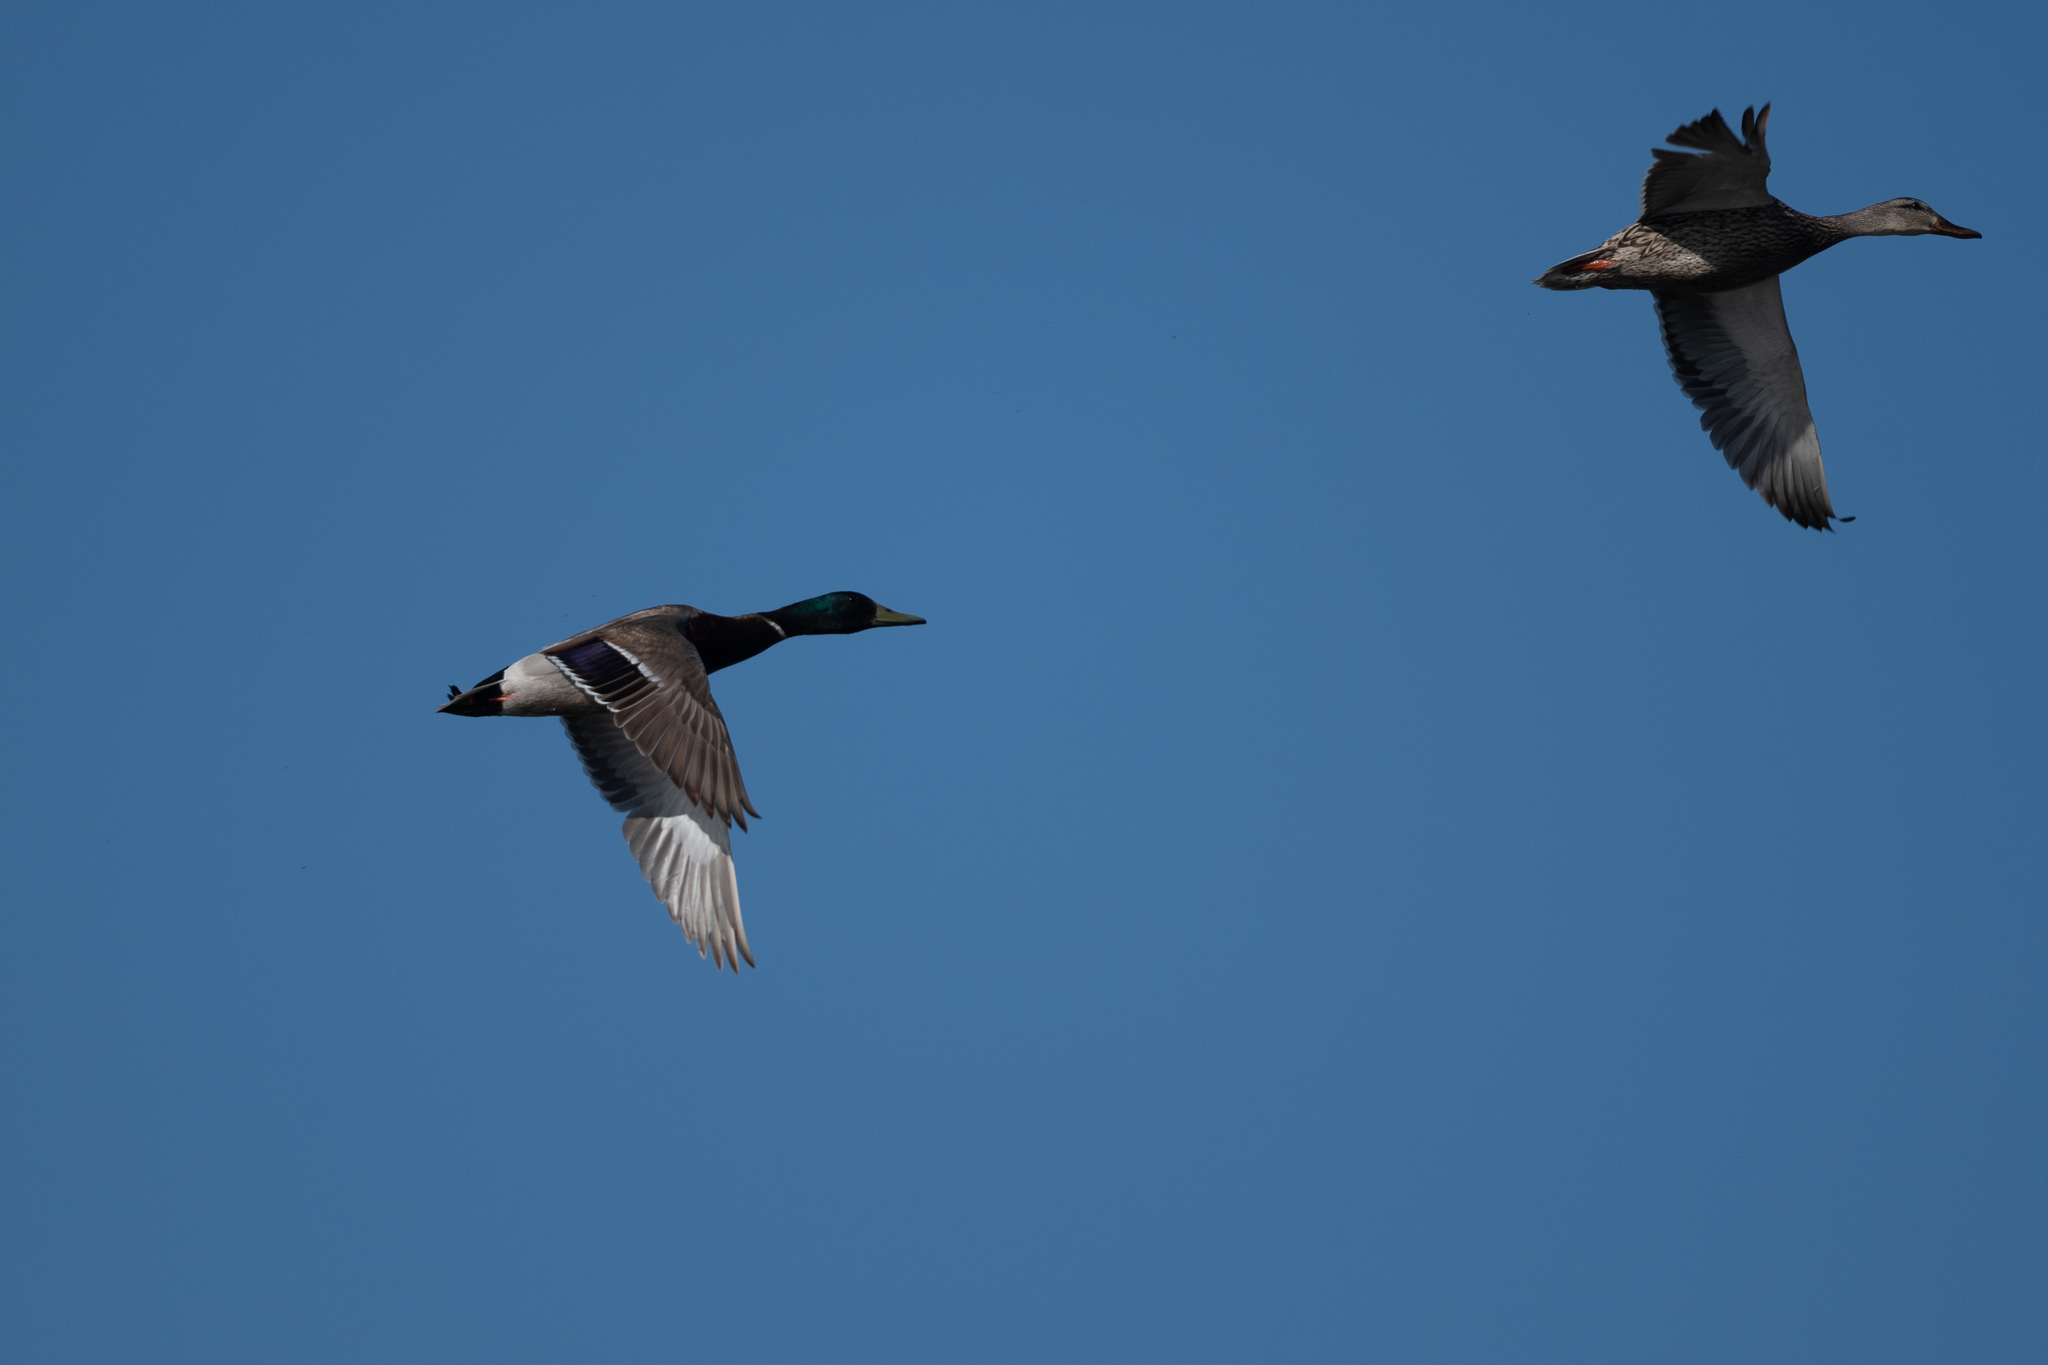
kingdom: Animalia
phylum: Chordata
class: Aves
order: Anseriformes
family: Anatidae
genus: Anas
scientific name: Anas platyrhynchos
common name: Mallard
